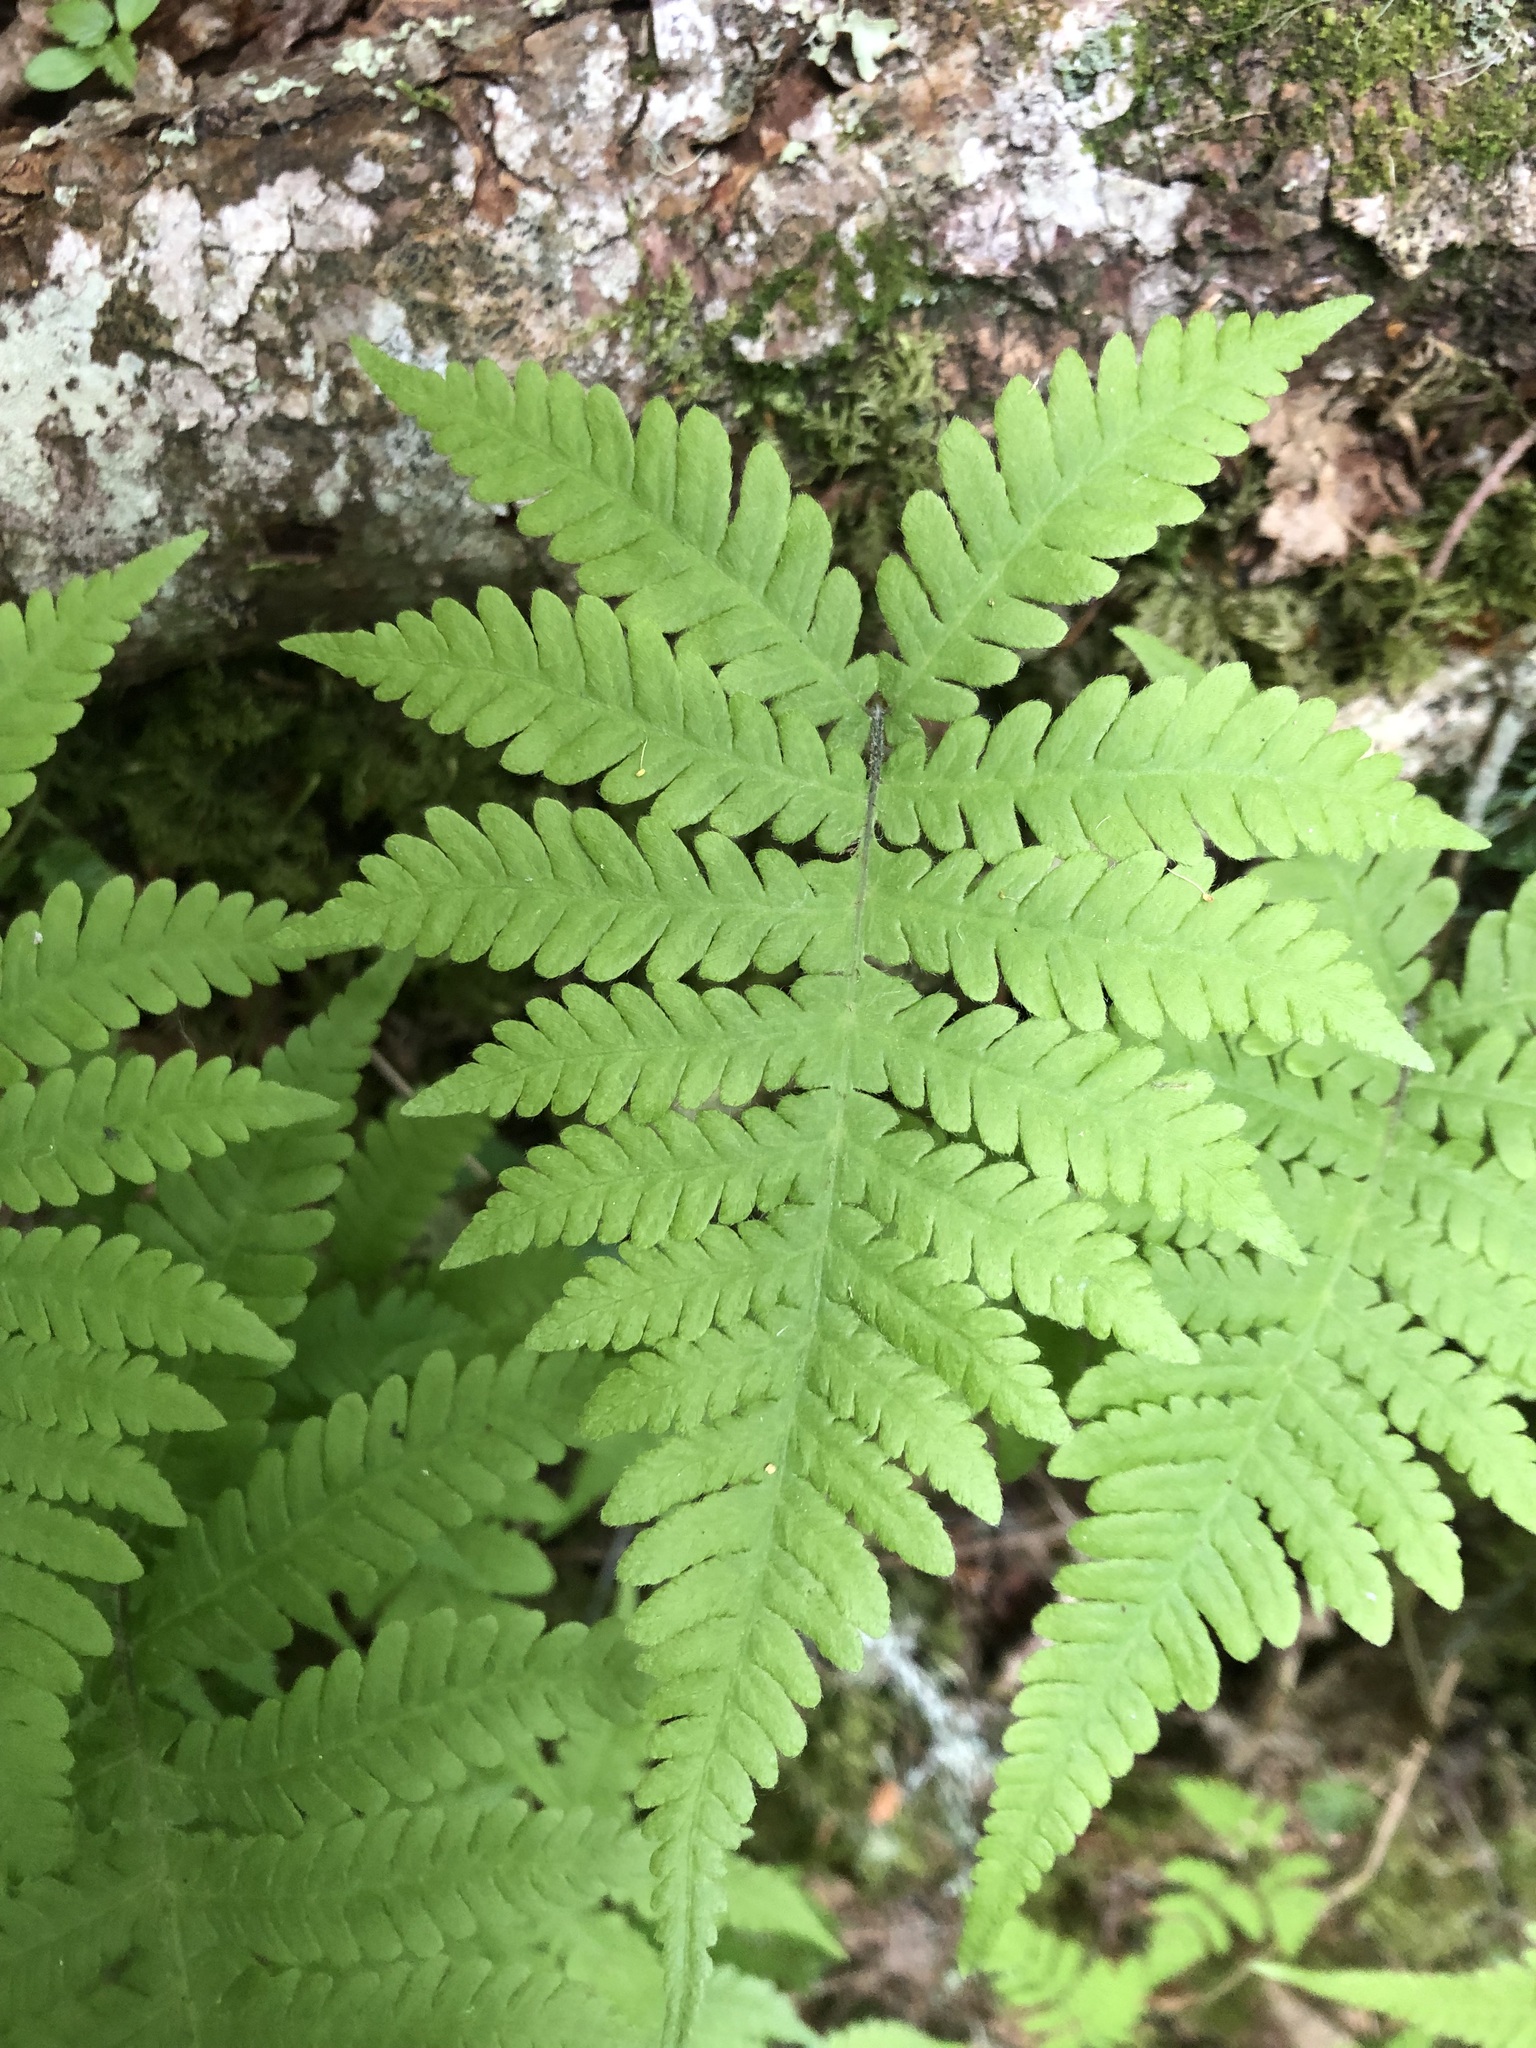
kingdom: Plantae
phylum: Tracheophyta
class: Polypodiopsida
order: Polypodiales
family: Thelypteridaceae
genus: Phegopteris
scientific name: Phegopteris connectilis
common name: Beech fern
